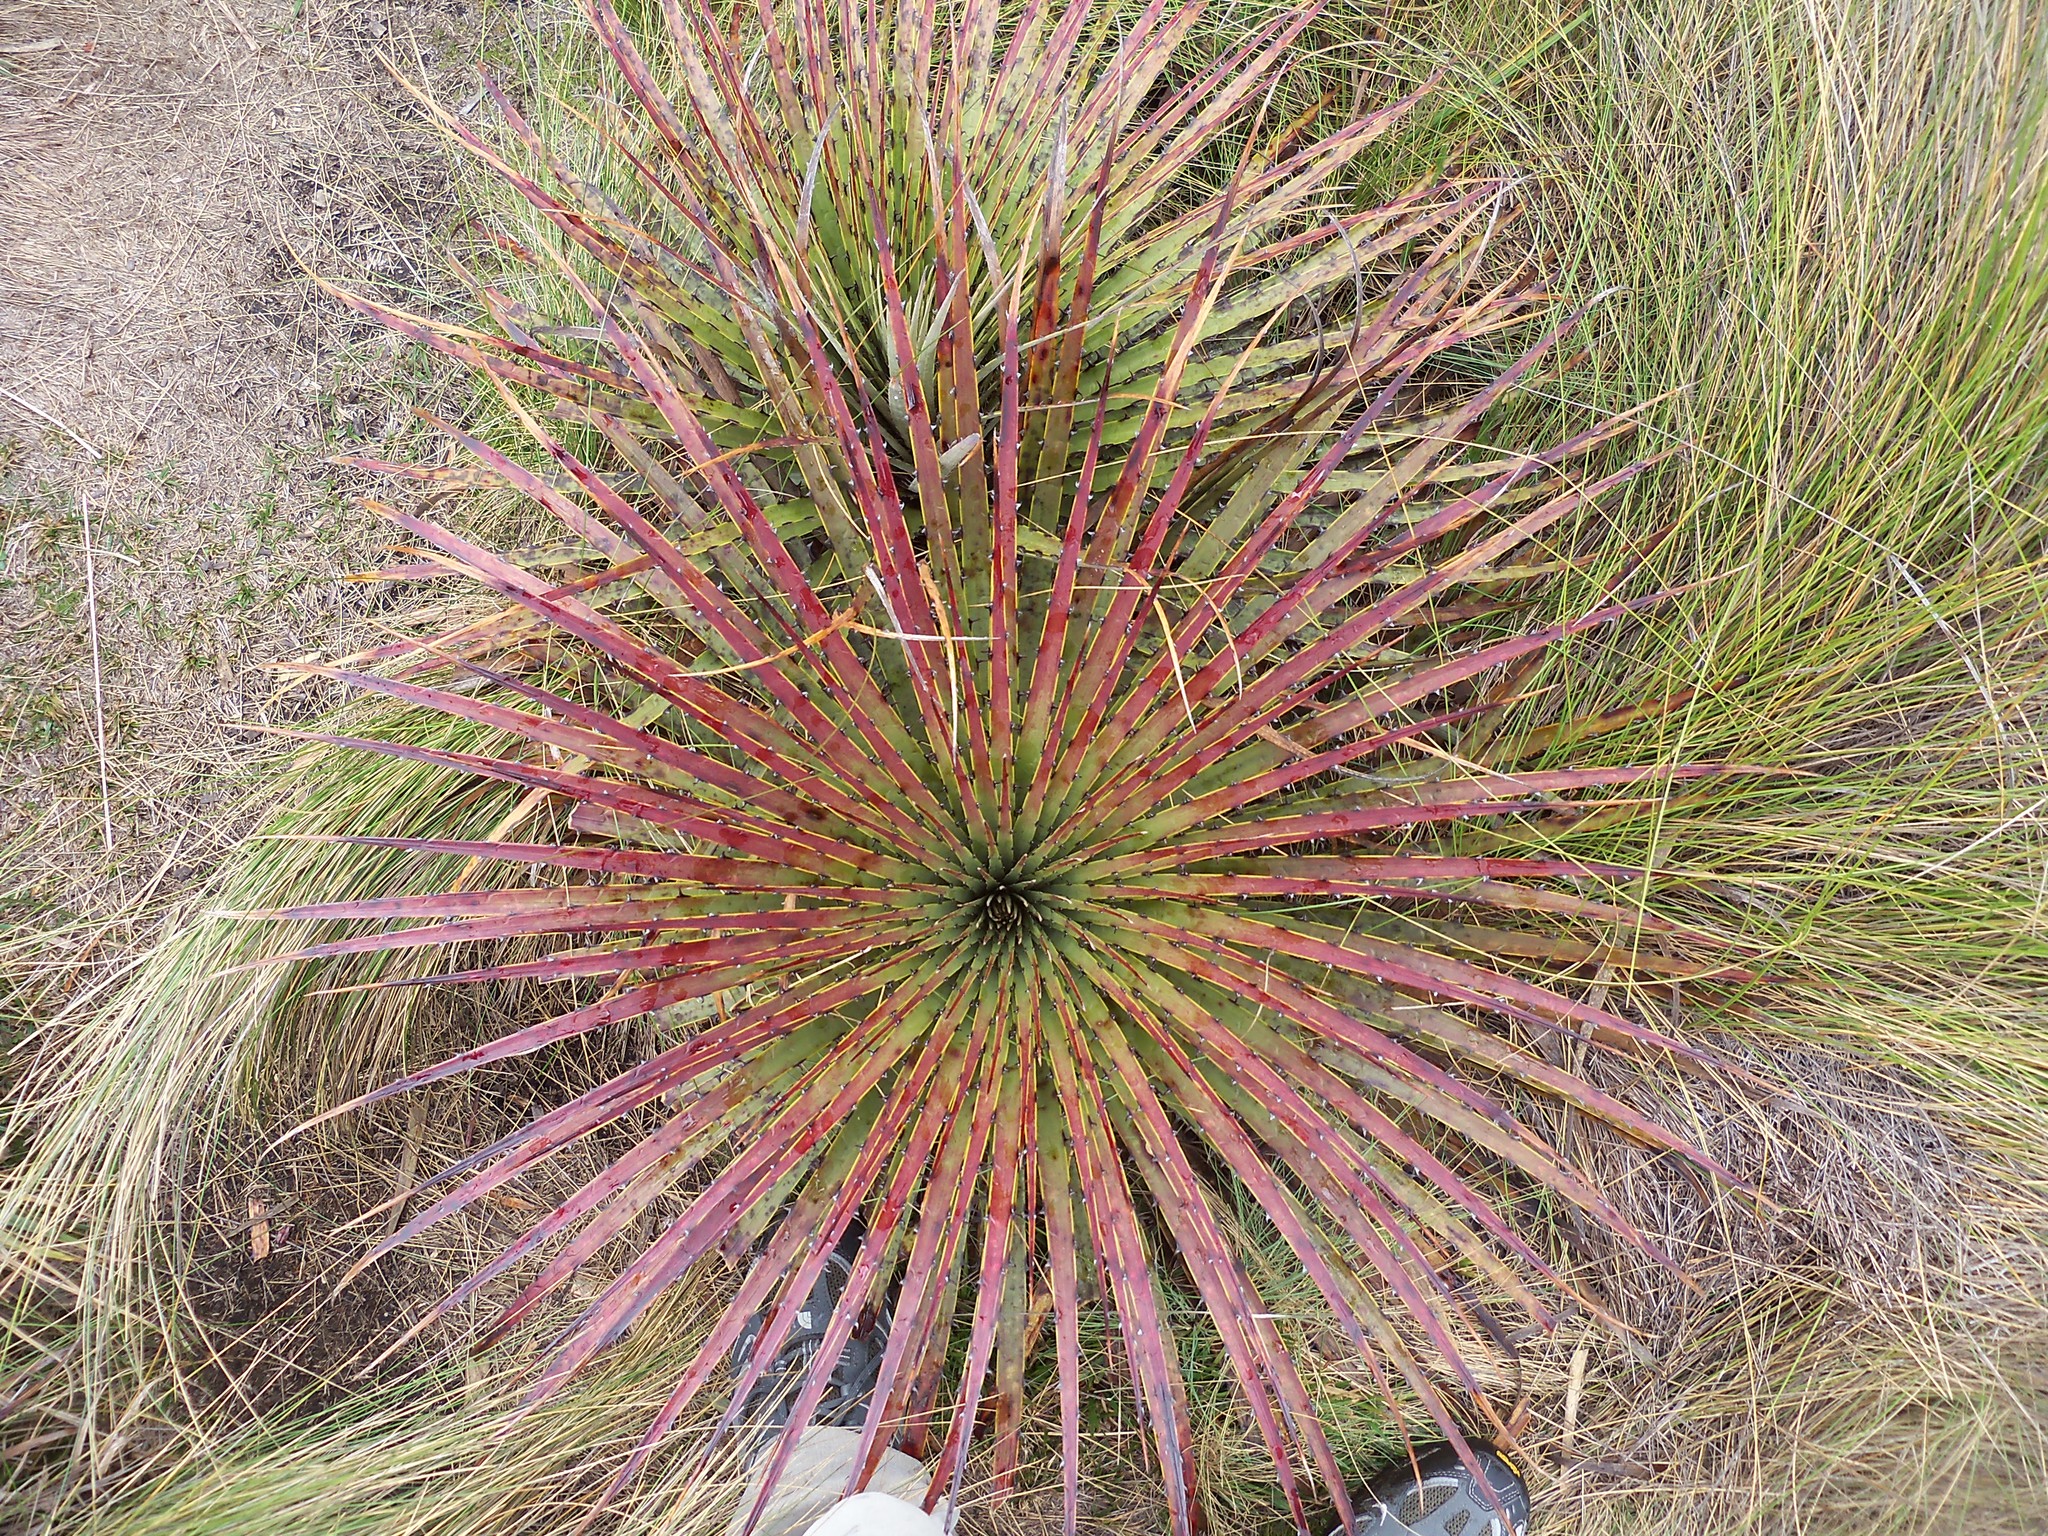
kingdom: Plantae
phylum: Tracheophyta
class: Liliopsida
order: Poales
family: Bromeliaceae
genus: Puya
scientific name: Puya clava-herculis
